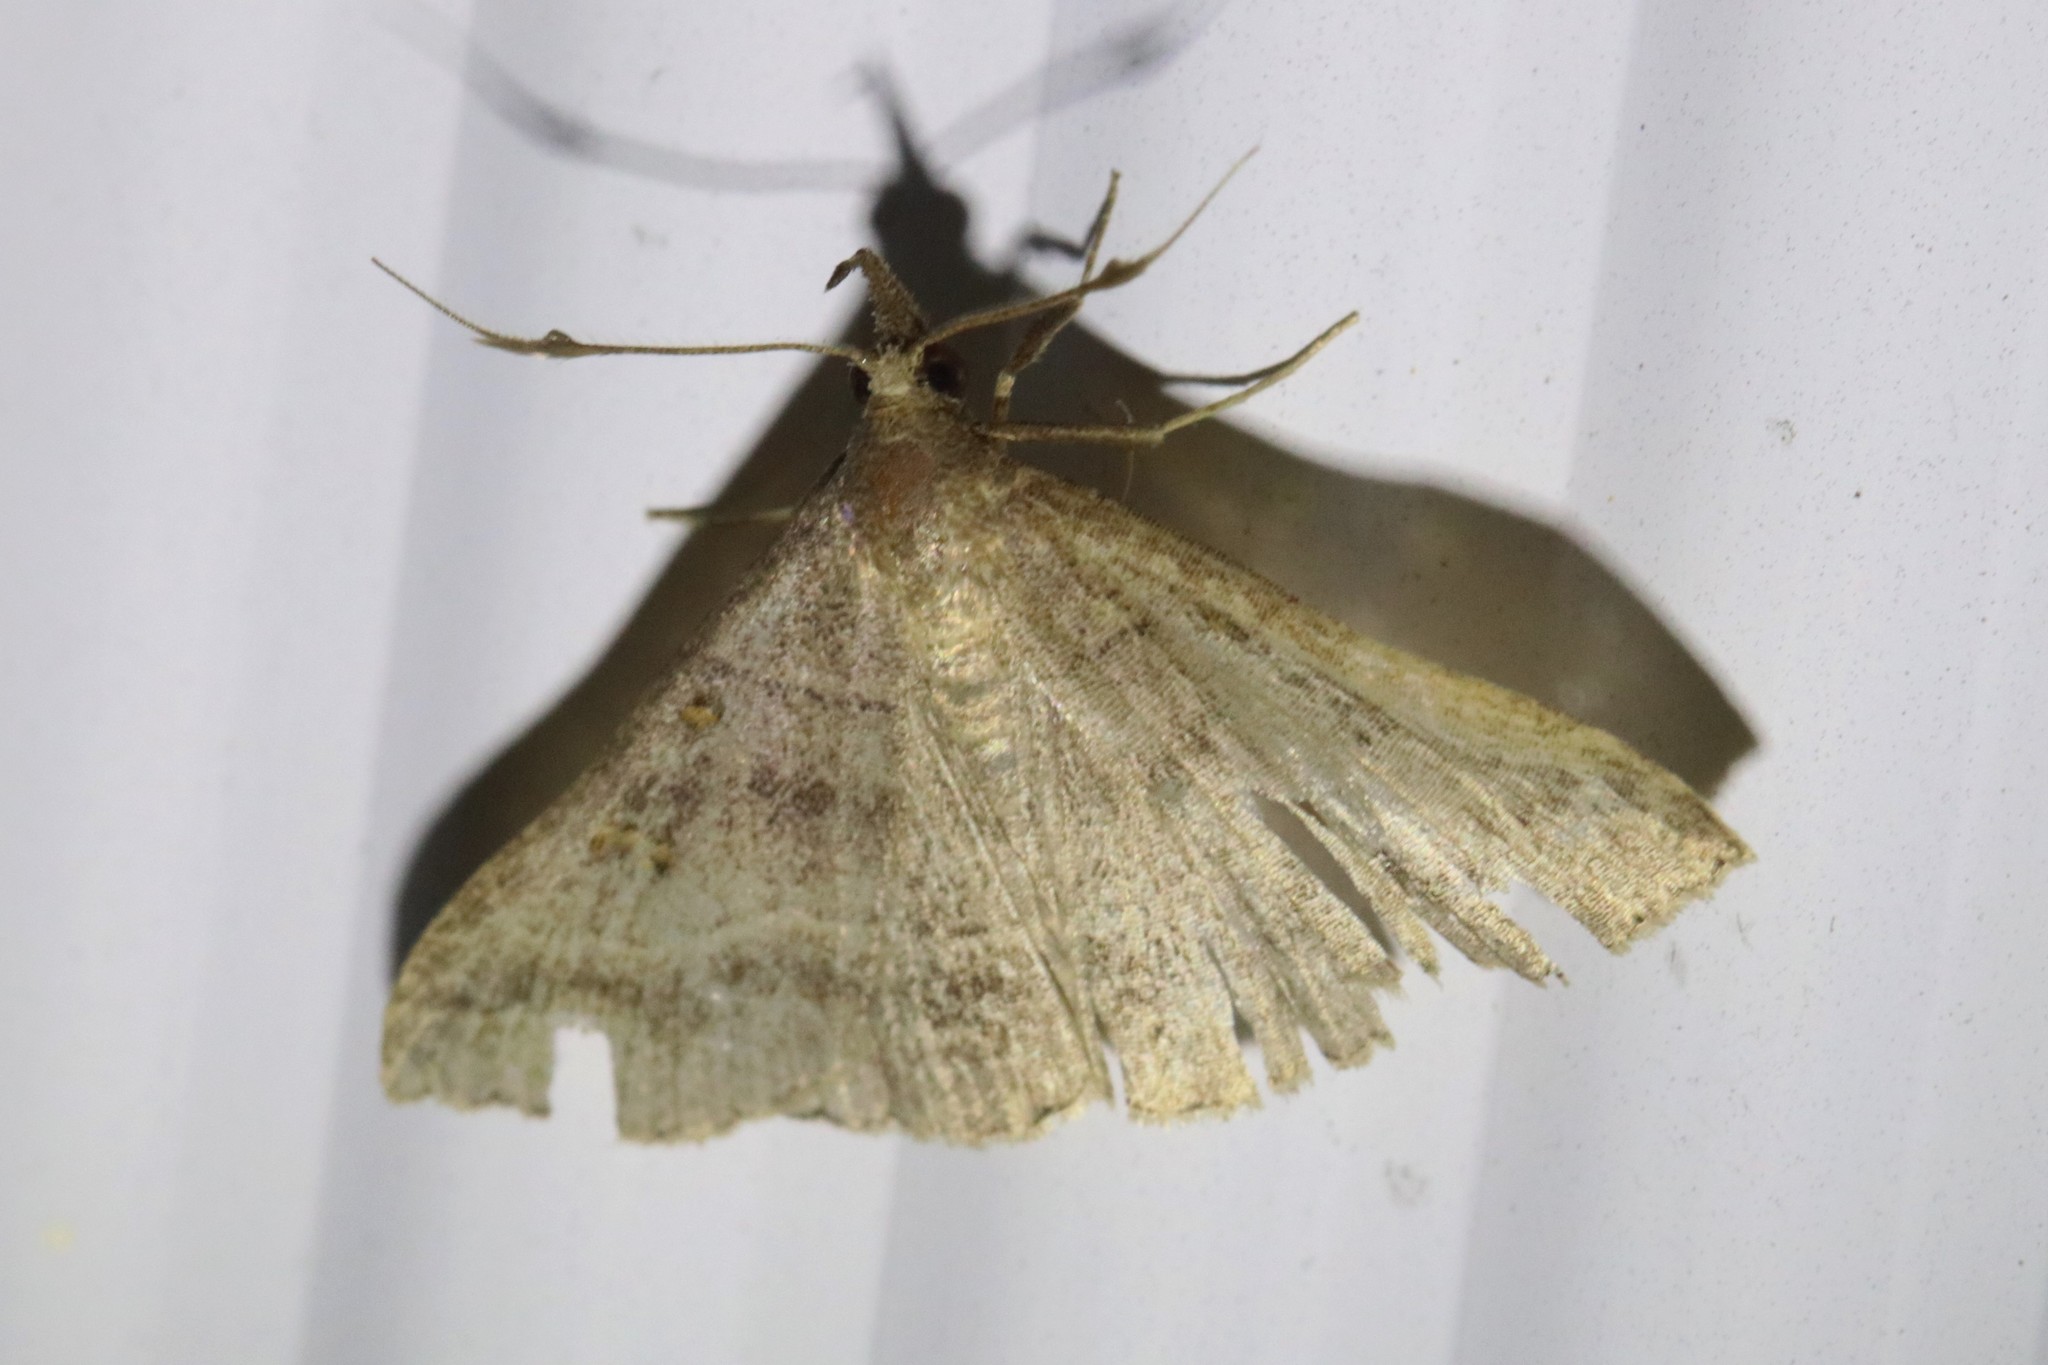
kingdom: Animalia
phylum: Arthropoda
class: Insecta
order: Lepidoptera
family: Erebidae
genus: Renia
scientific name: Renia flavipunctalis
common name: Yellow-spotted renia moth
